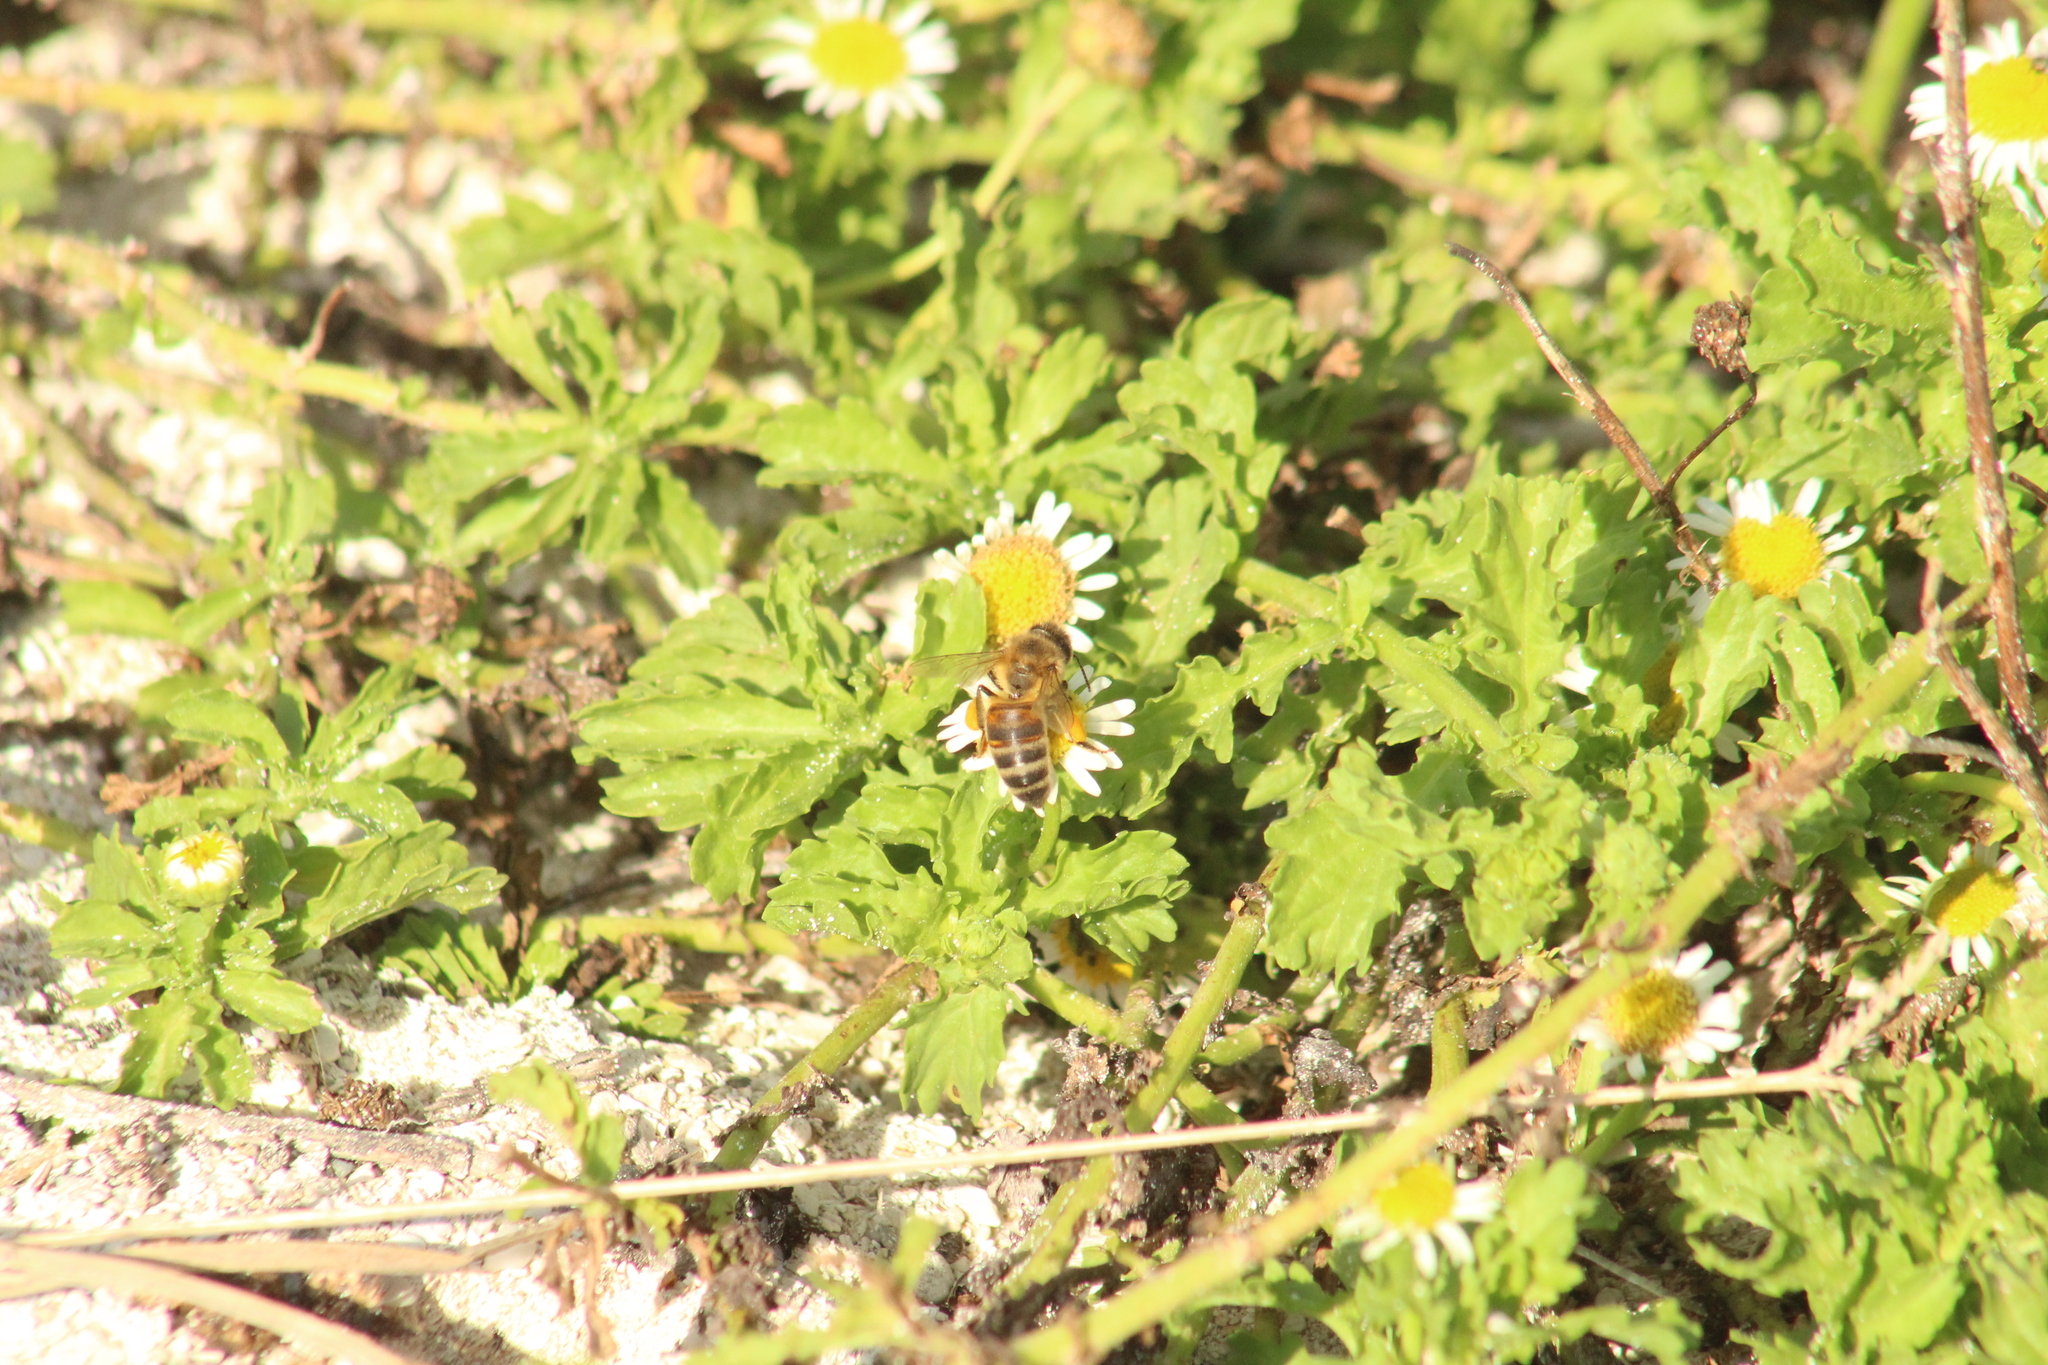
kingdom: Animalia
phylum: Arthropoda
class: Insecta
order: Hymenoptera
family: Apidae
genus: Apis
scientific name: Apis mellifera
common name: Honey bee
